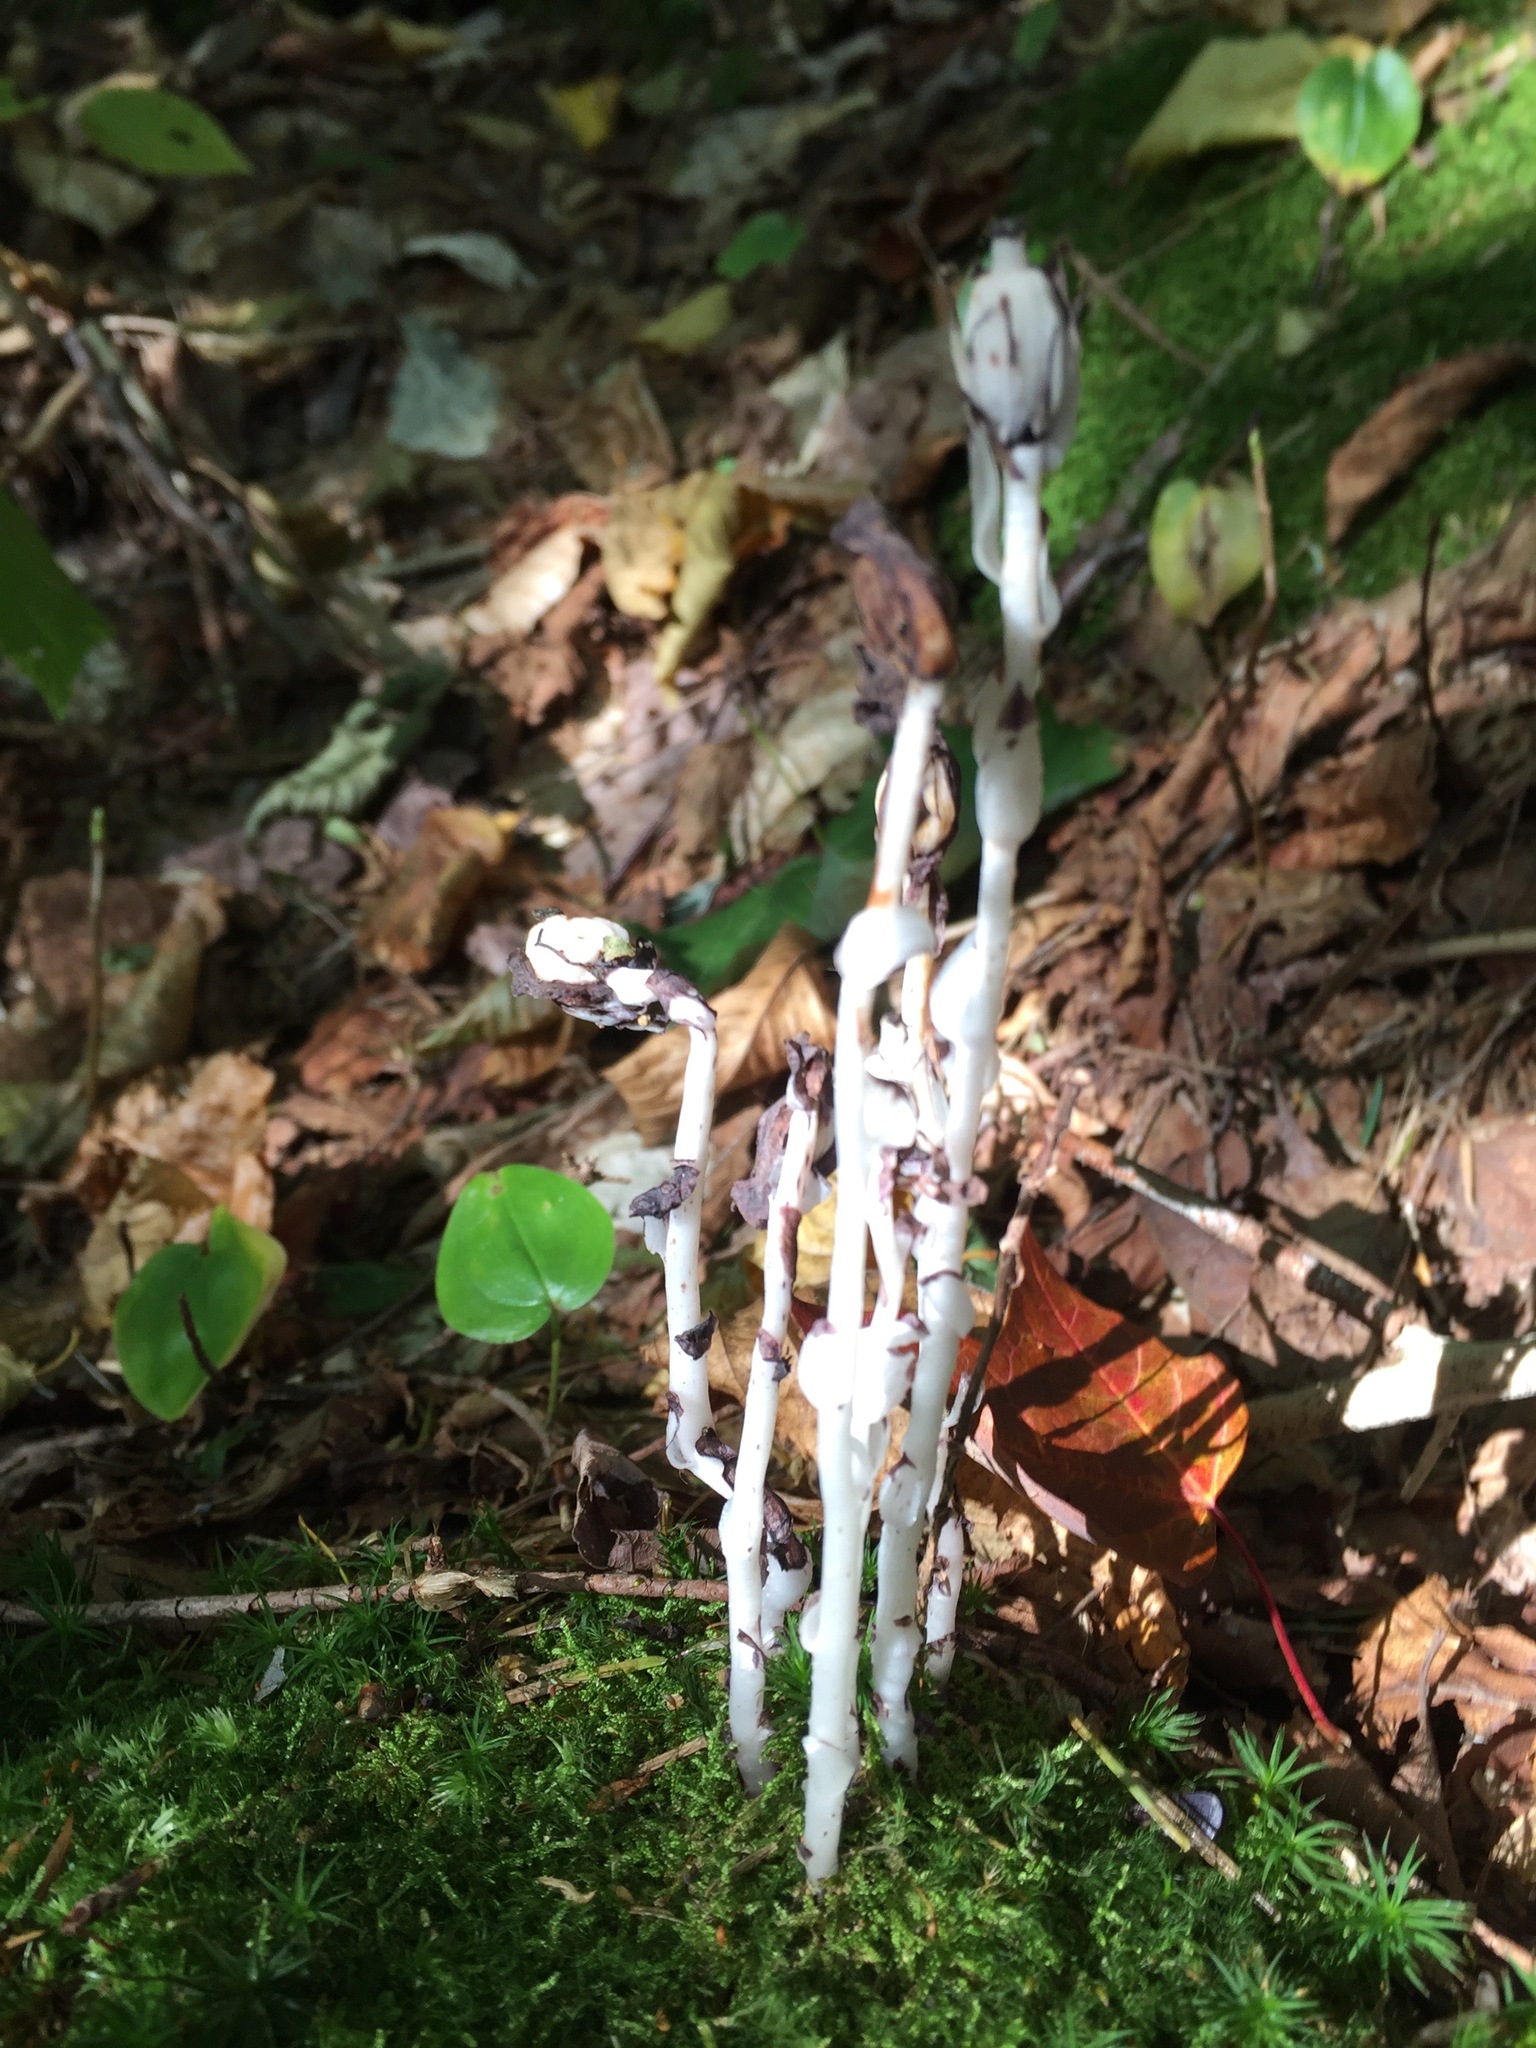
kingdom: Plantae
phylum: Tracheophyta
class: Magnoliopsida
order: Ericales
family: Ericaceae
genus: Monotropa
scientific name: Monotropa uniflora
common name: Convulsion root
